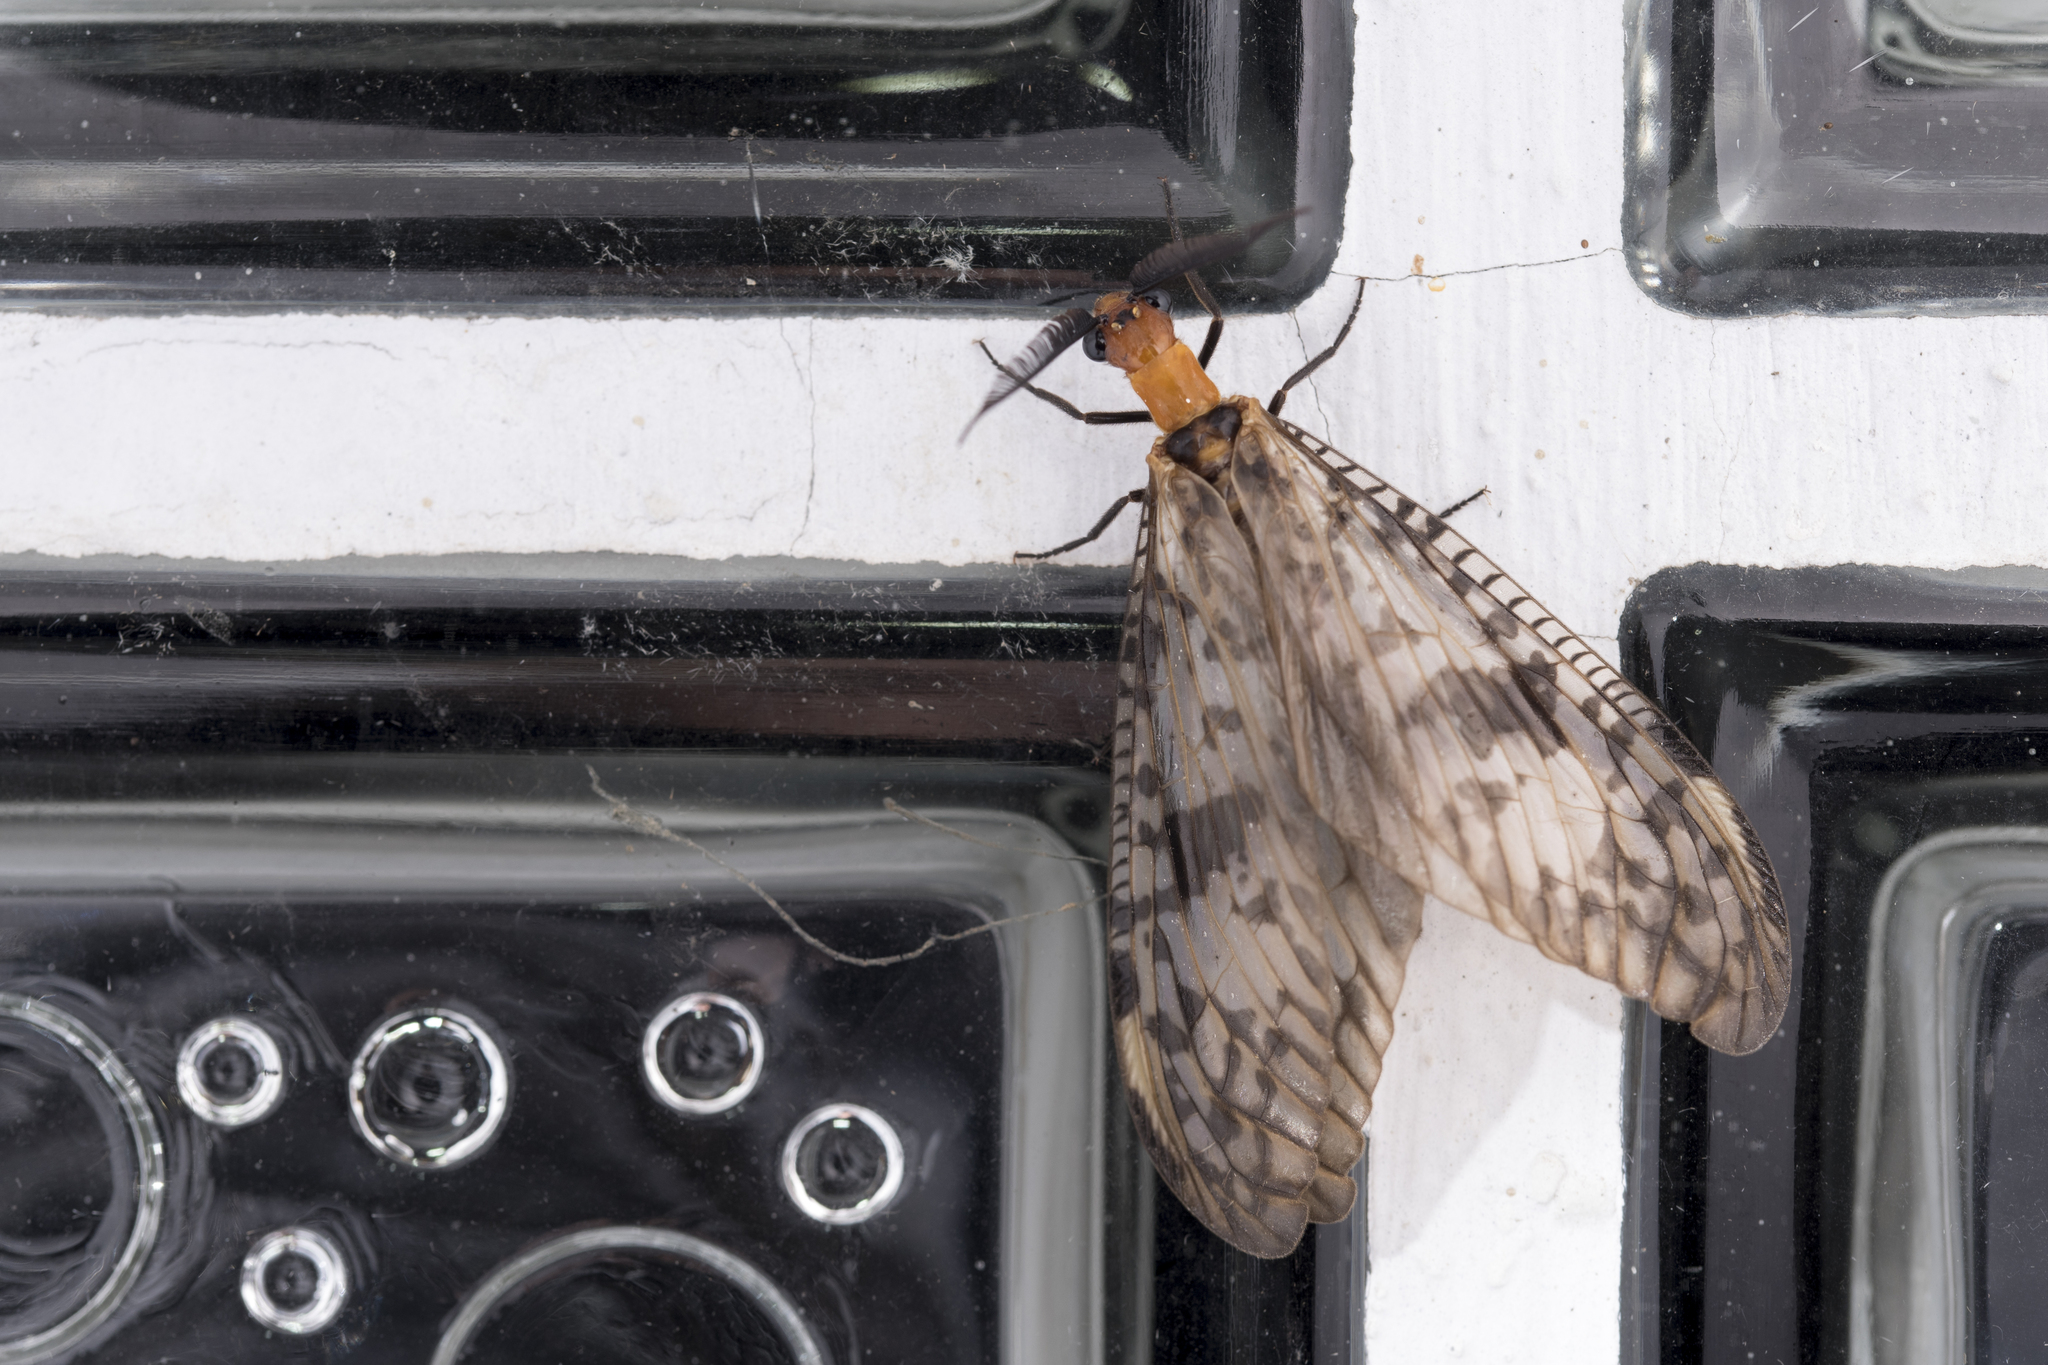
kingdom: Animalia
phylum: Arthropoda
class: Insecta
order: Megaloptera
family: Corydalidae
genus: Neochauliodes
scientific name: Neochauliodes formosanus
